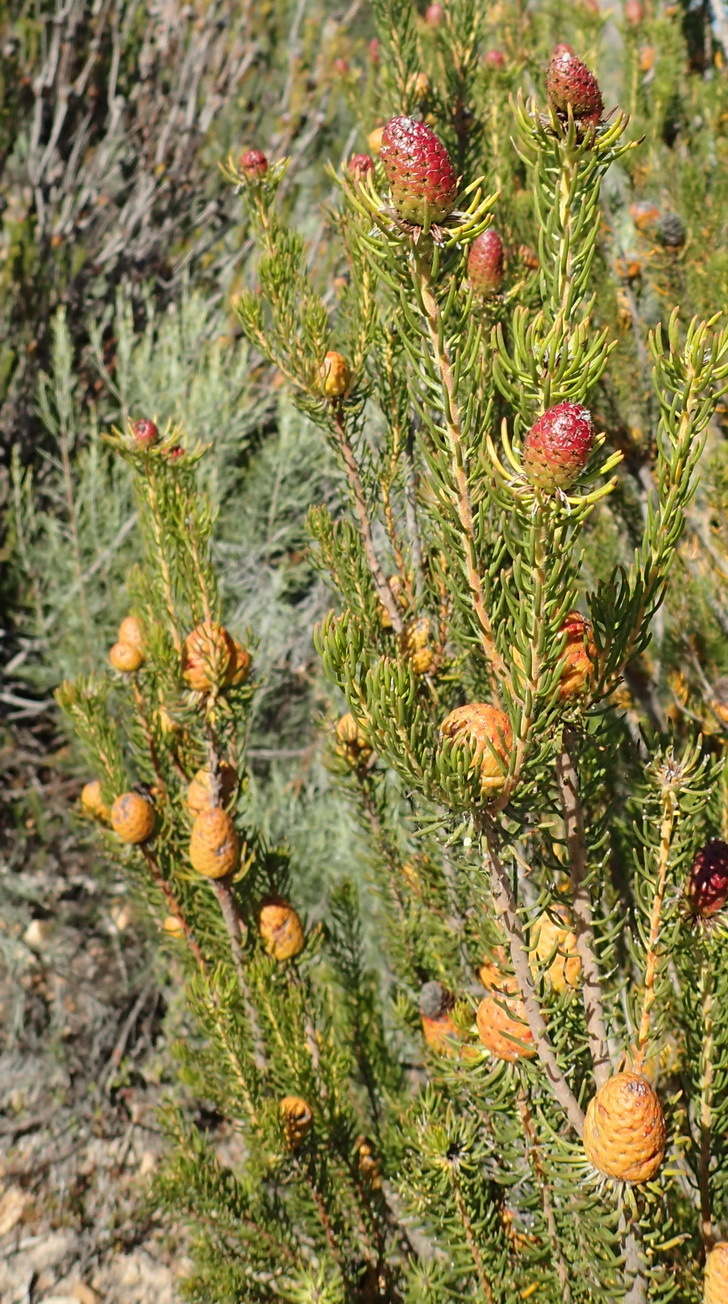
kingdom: Plantae
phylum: Tracheophyta
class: Magnoliopsida
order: Proteales
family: Proteaceae
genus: Leucadendron
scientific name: Leucadendron teretifolium
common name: Needle-leaf conebush
